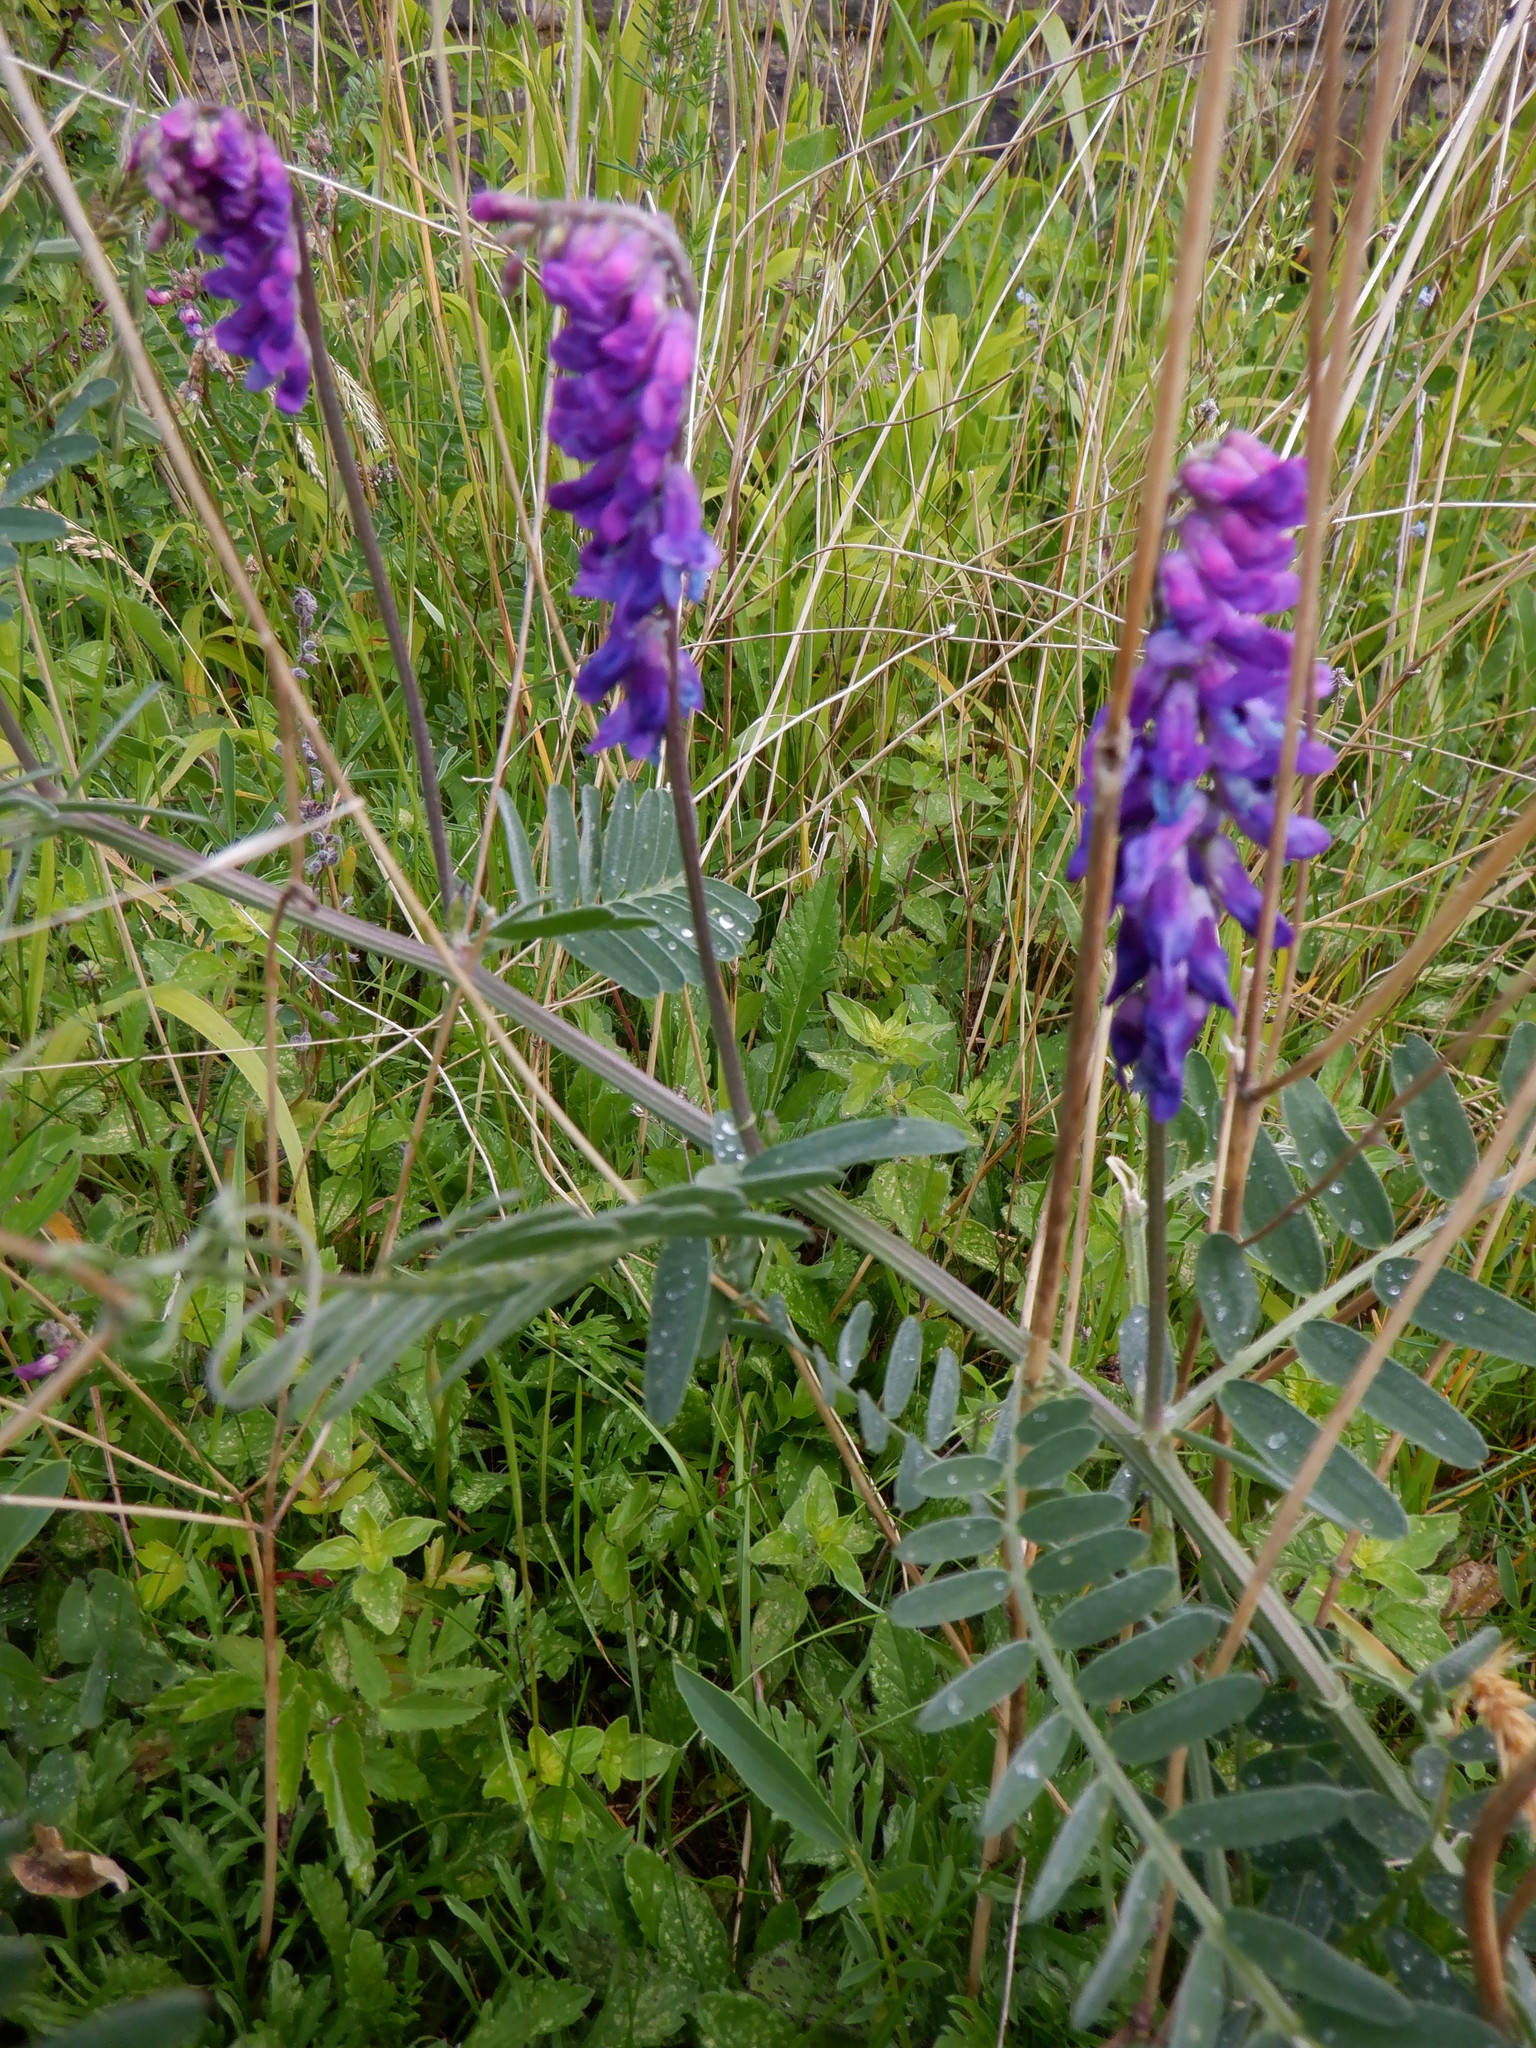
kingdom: Plantae
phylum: Tracheophyta
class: Magnoliopsida
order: Fabales
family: Fabaceae
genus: Vicia
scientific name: Vicia cracca
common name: Bird vetch
